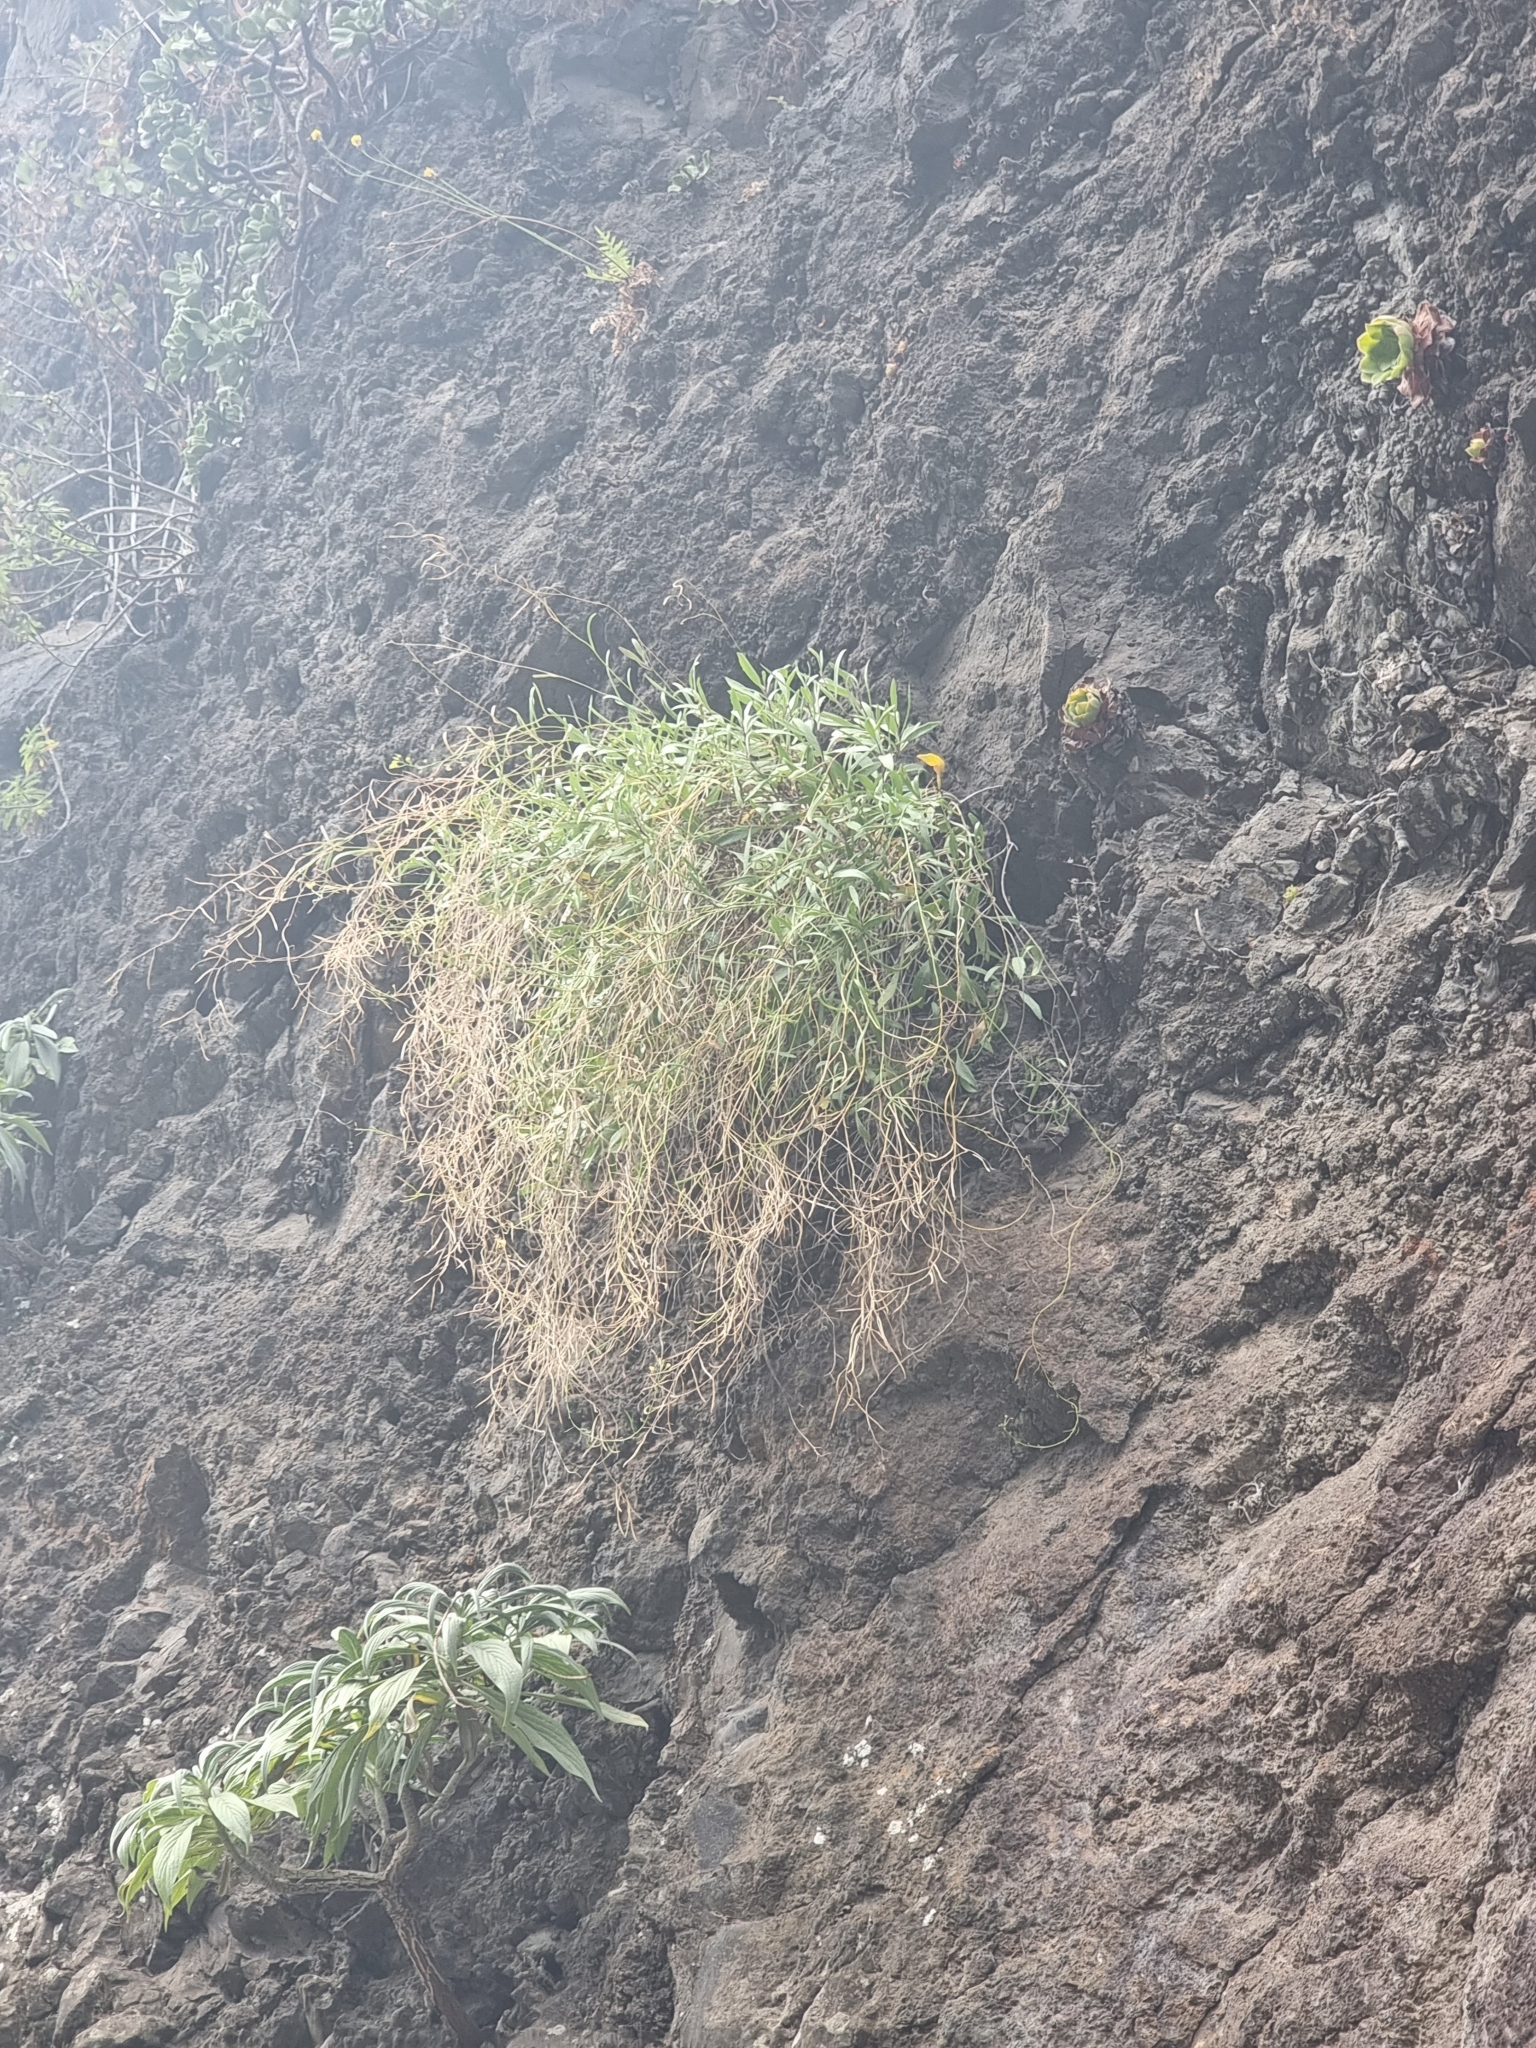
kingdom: Plantae
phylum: Tracheophyta
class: Magnoliopsida
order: Brassicales
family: Brassicaceae
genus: Sinapidendron
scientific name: Sinapidendron angustifolium
